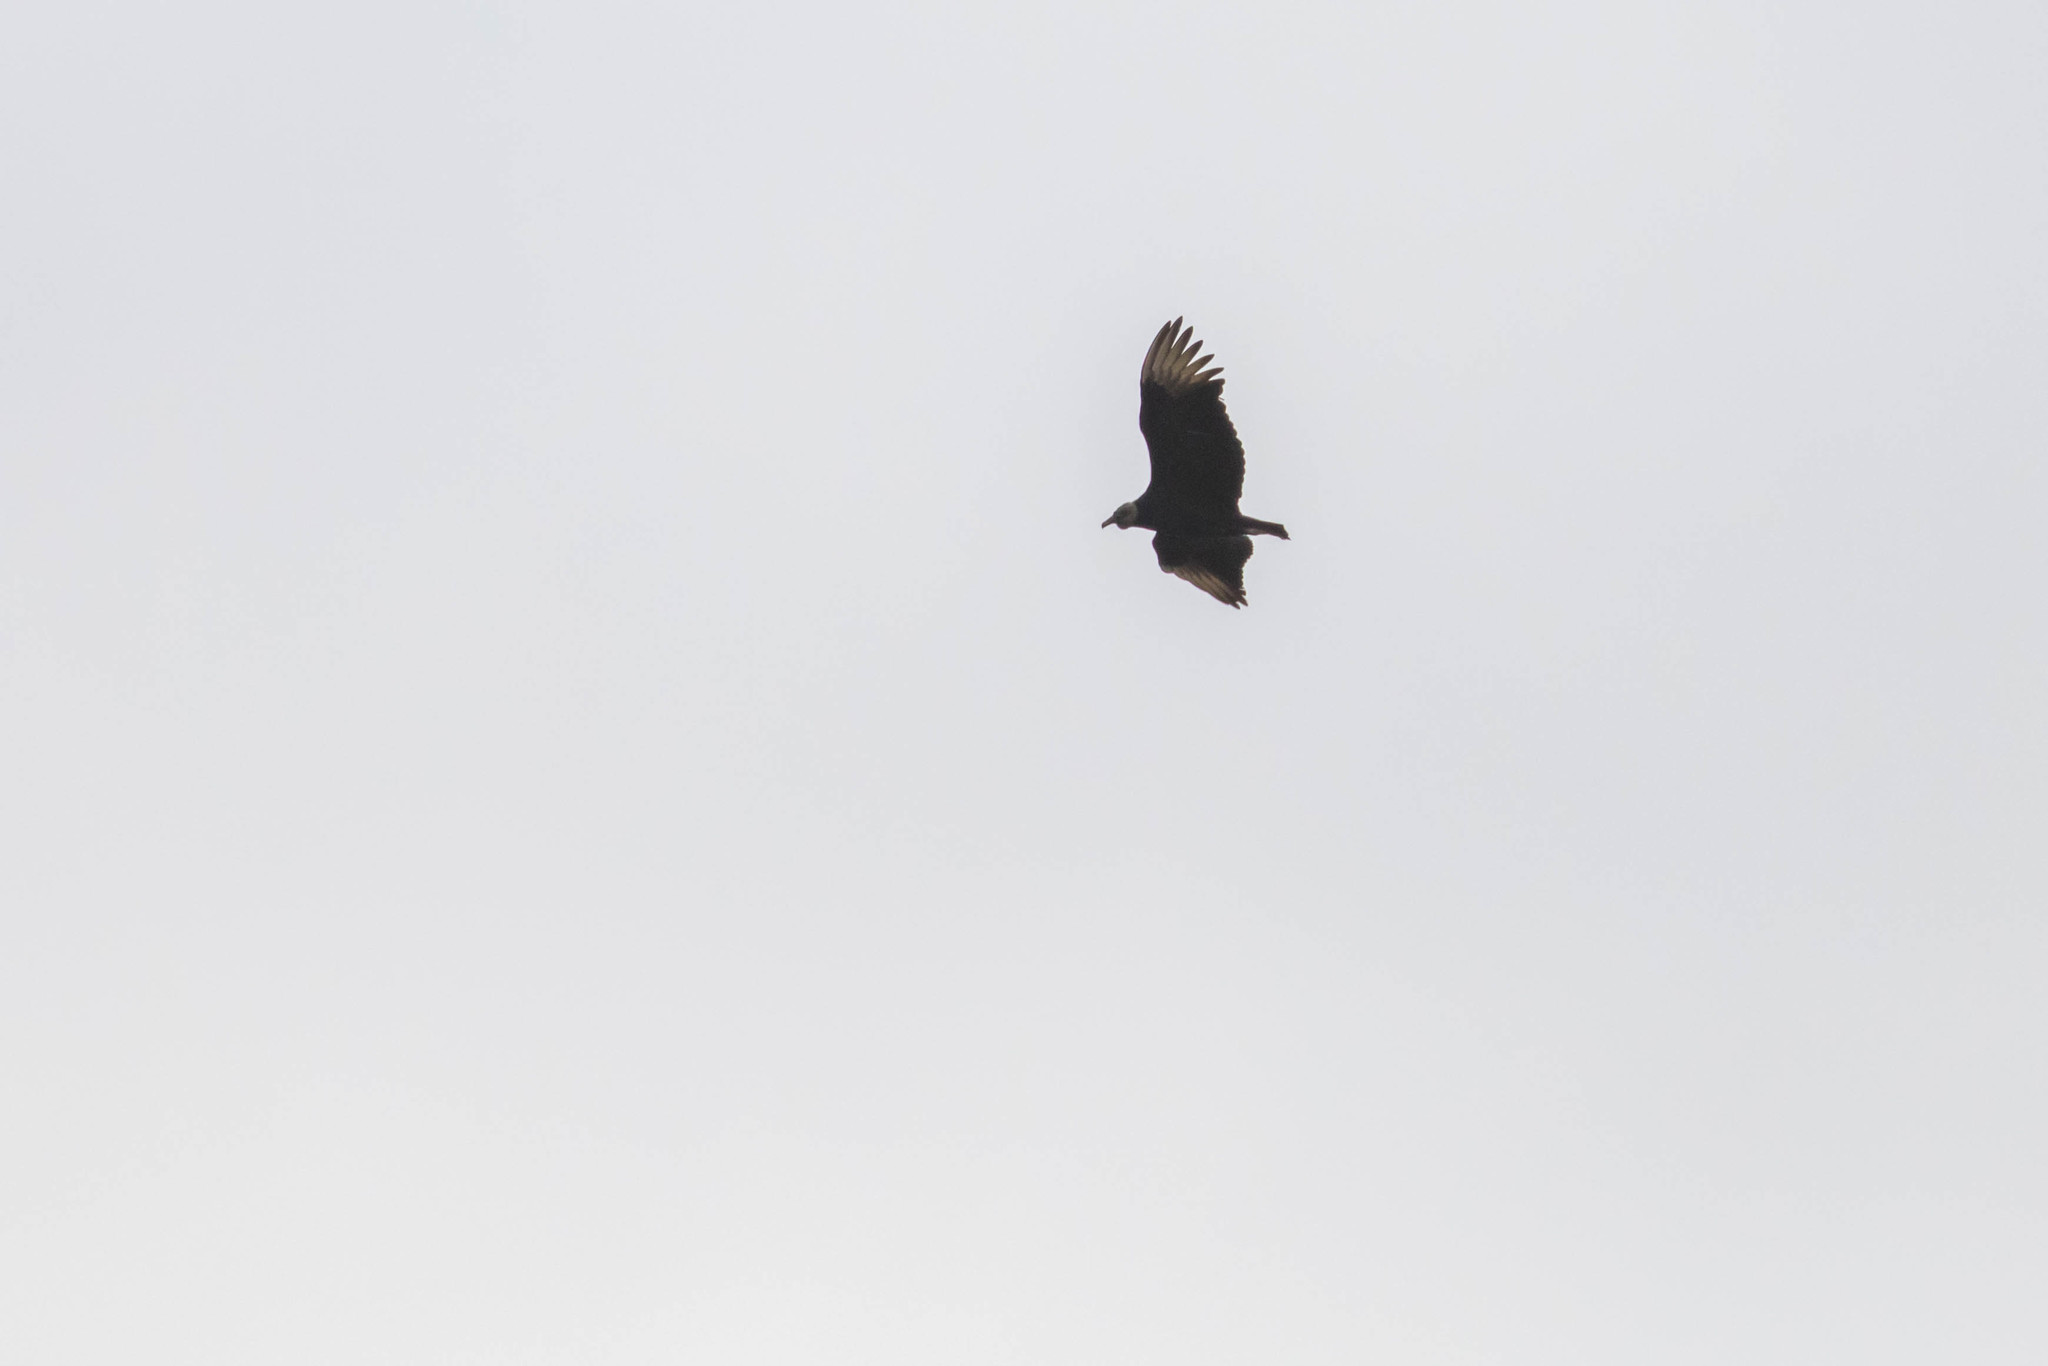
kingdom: Animalia
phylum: Chordata
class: Aves
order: Accipitriformes
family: Cathartidae
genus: Coragyps
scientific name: Coragyps atratus
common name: Black vulture
